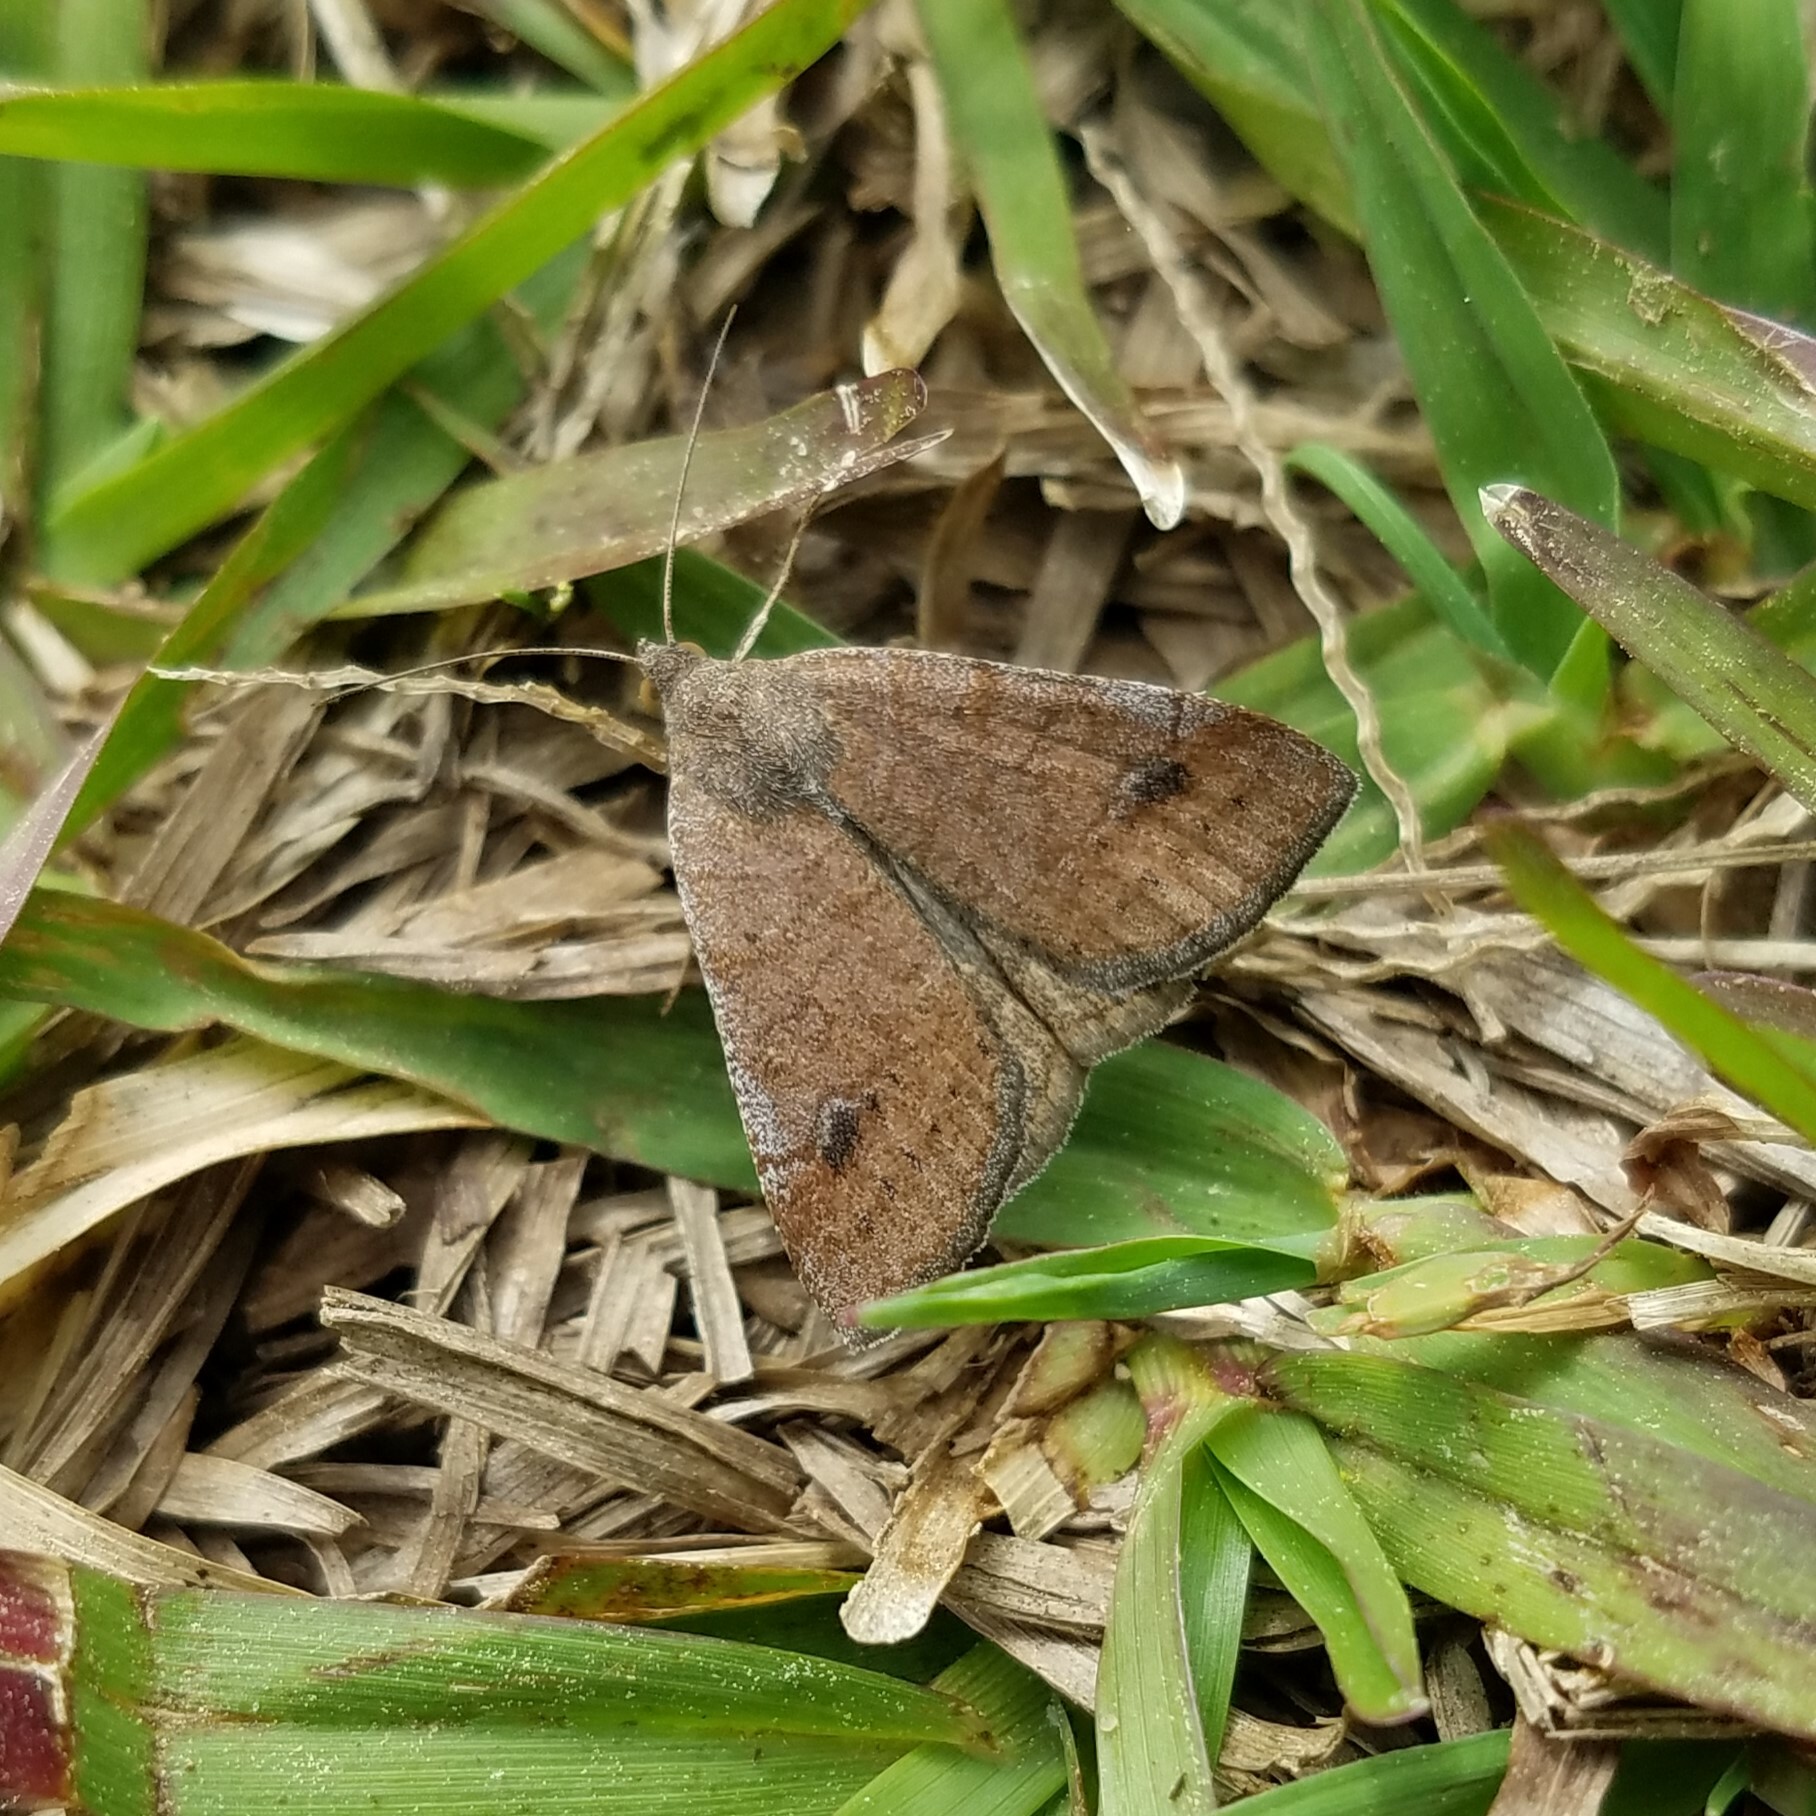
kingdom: Animalia
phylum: Arthropoda
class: Insecta
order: Lepidoptera
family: Erebidae
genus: Caenurgia
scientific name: Caenurgia chloropha
